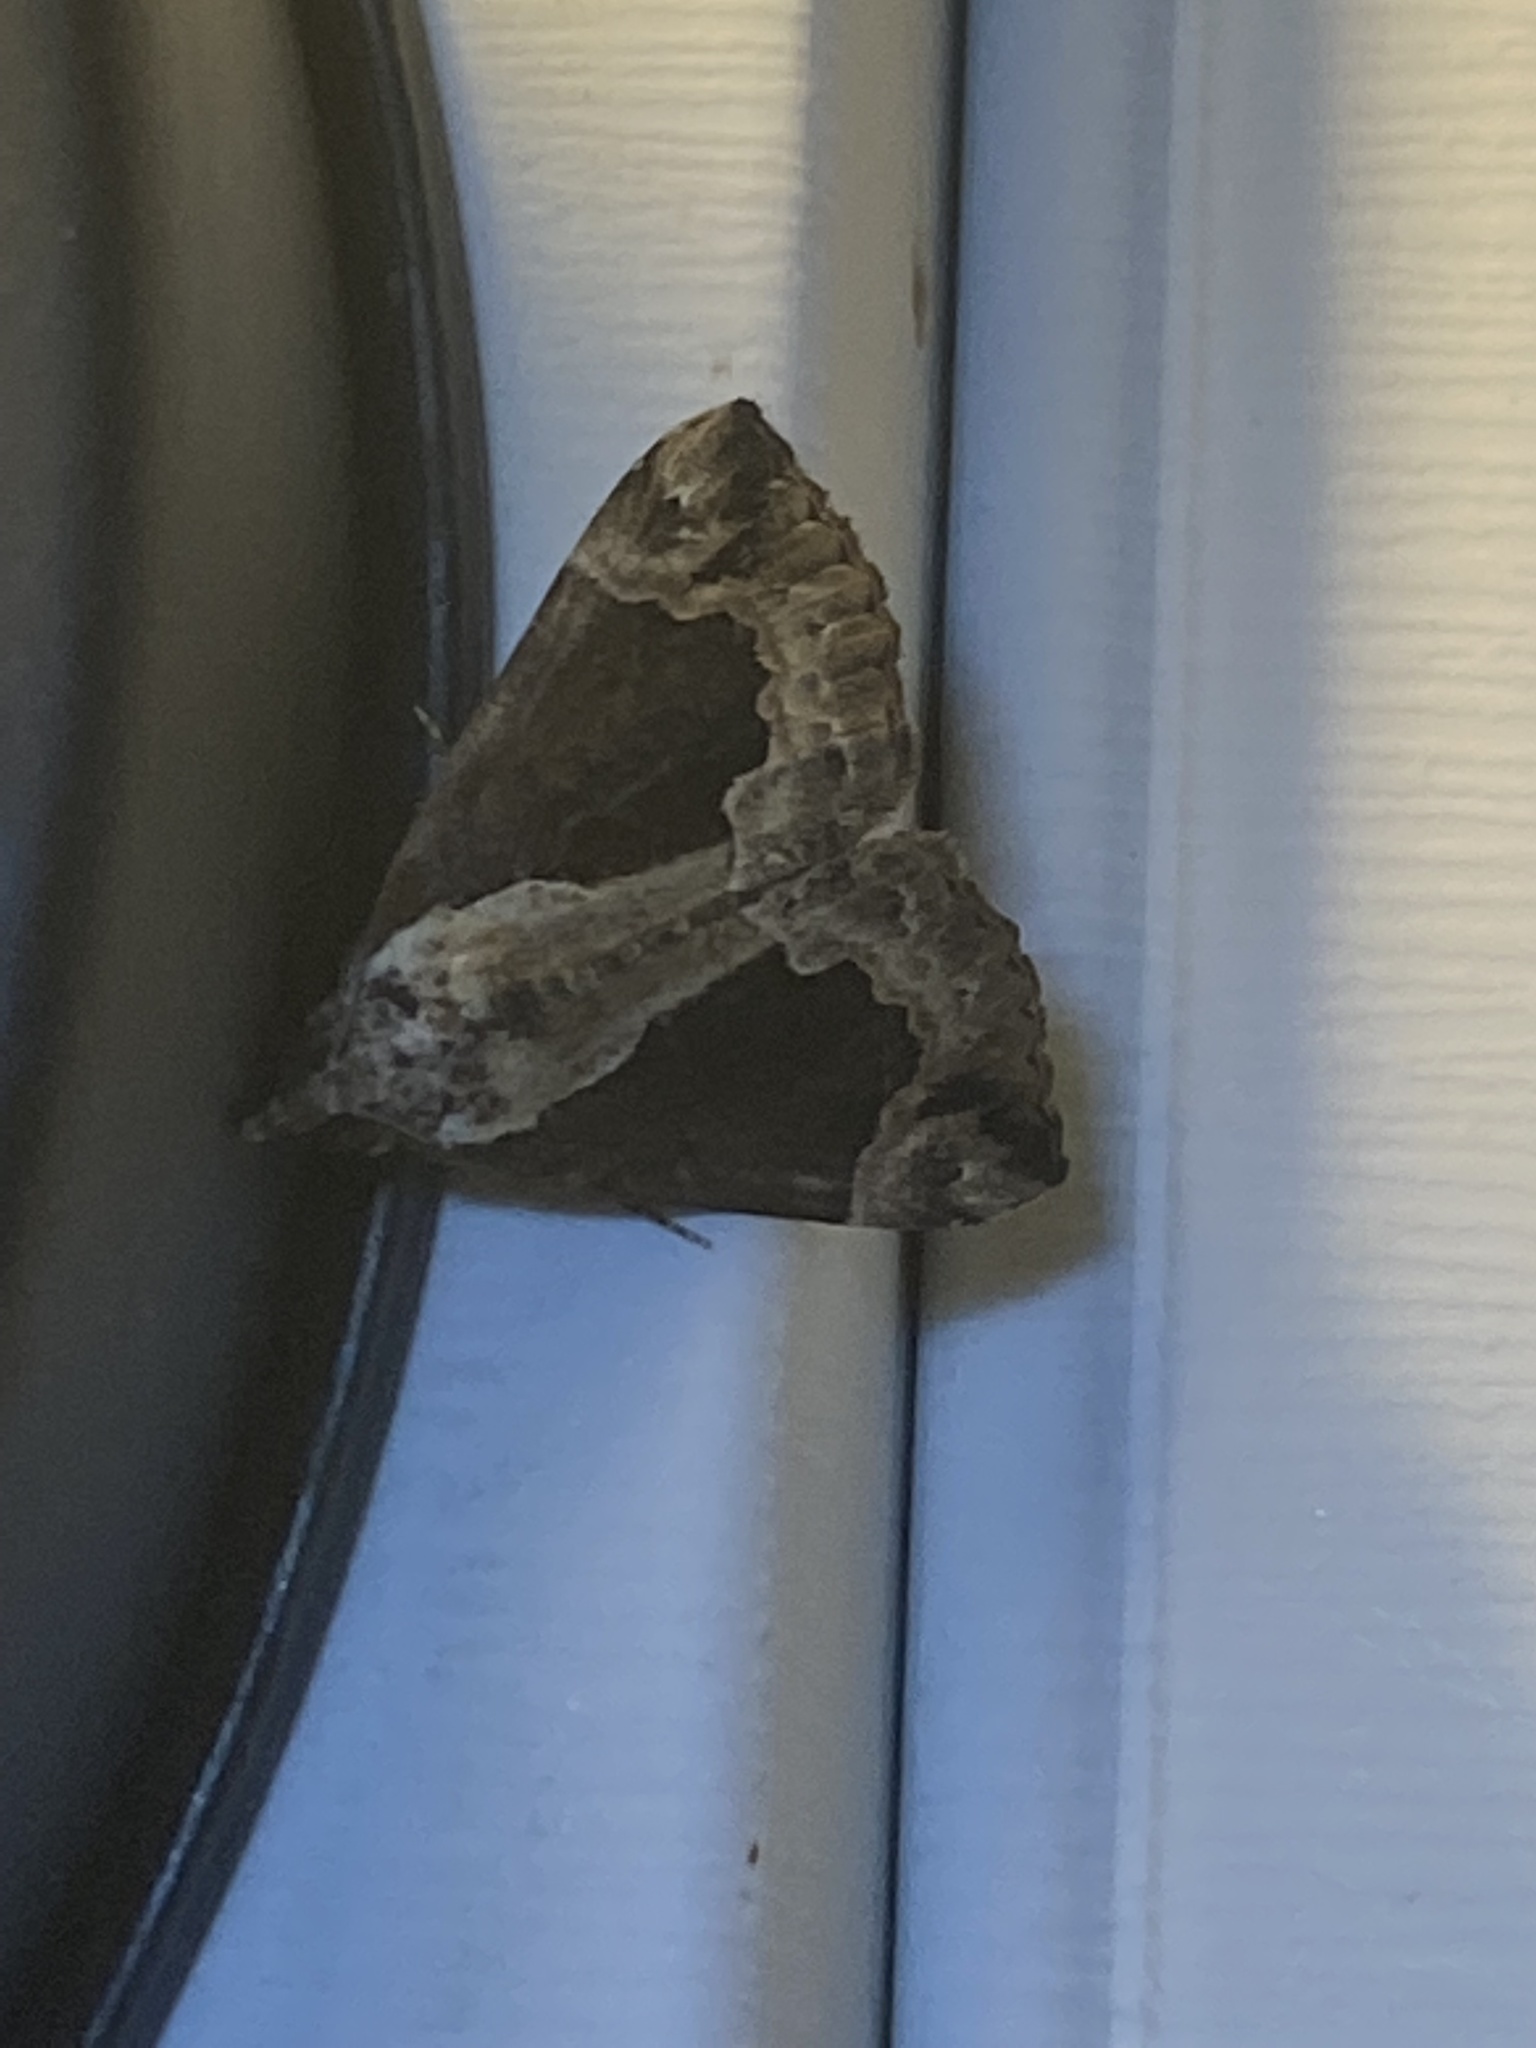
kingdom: Animalia
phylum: Arthropoda
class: Insecta
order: Lepidoptera
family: Erebidae
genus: Hypena
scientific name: Hypena baltimoralis
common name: Baltimore snout
